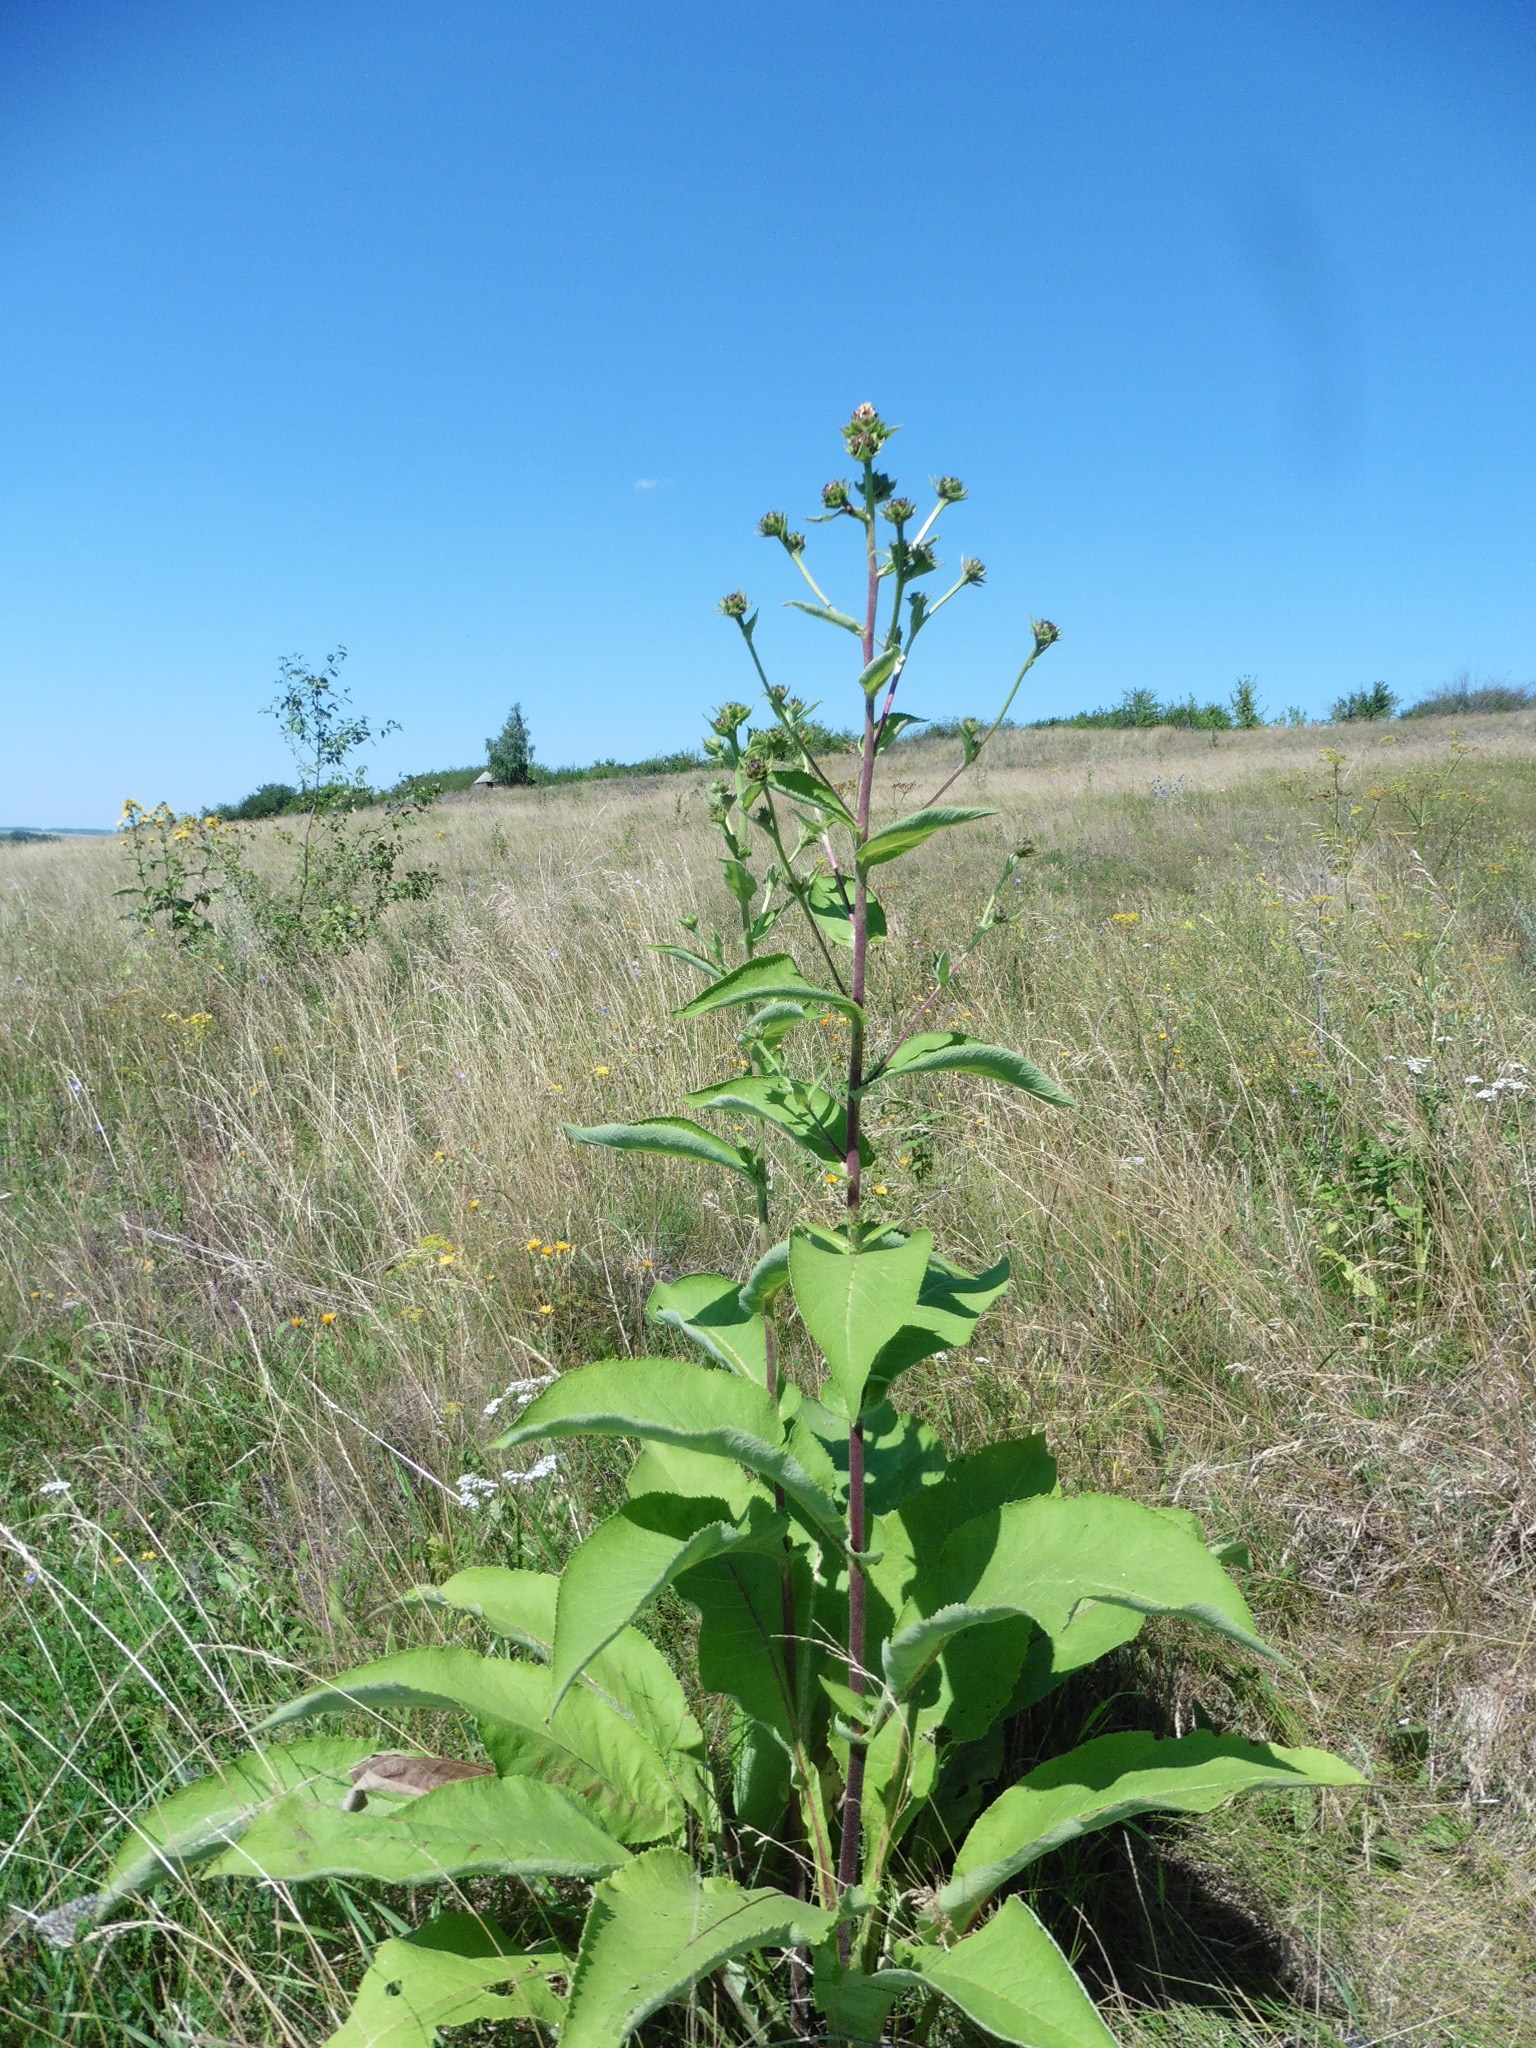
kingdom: Plantae
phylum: Tracheophyta
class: Magnoliopsida
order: Asterales
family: Asteraceae
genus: Inula
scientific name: Inula helenium
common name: Elecampane
